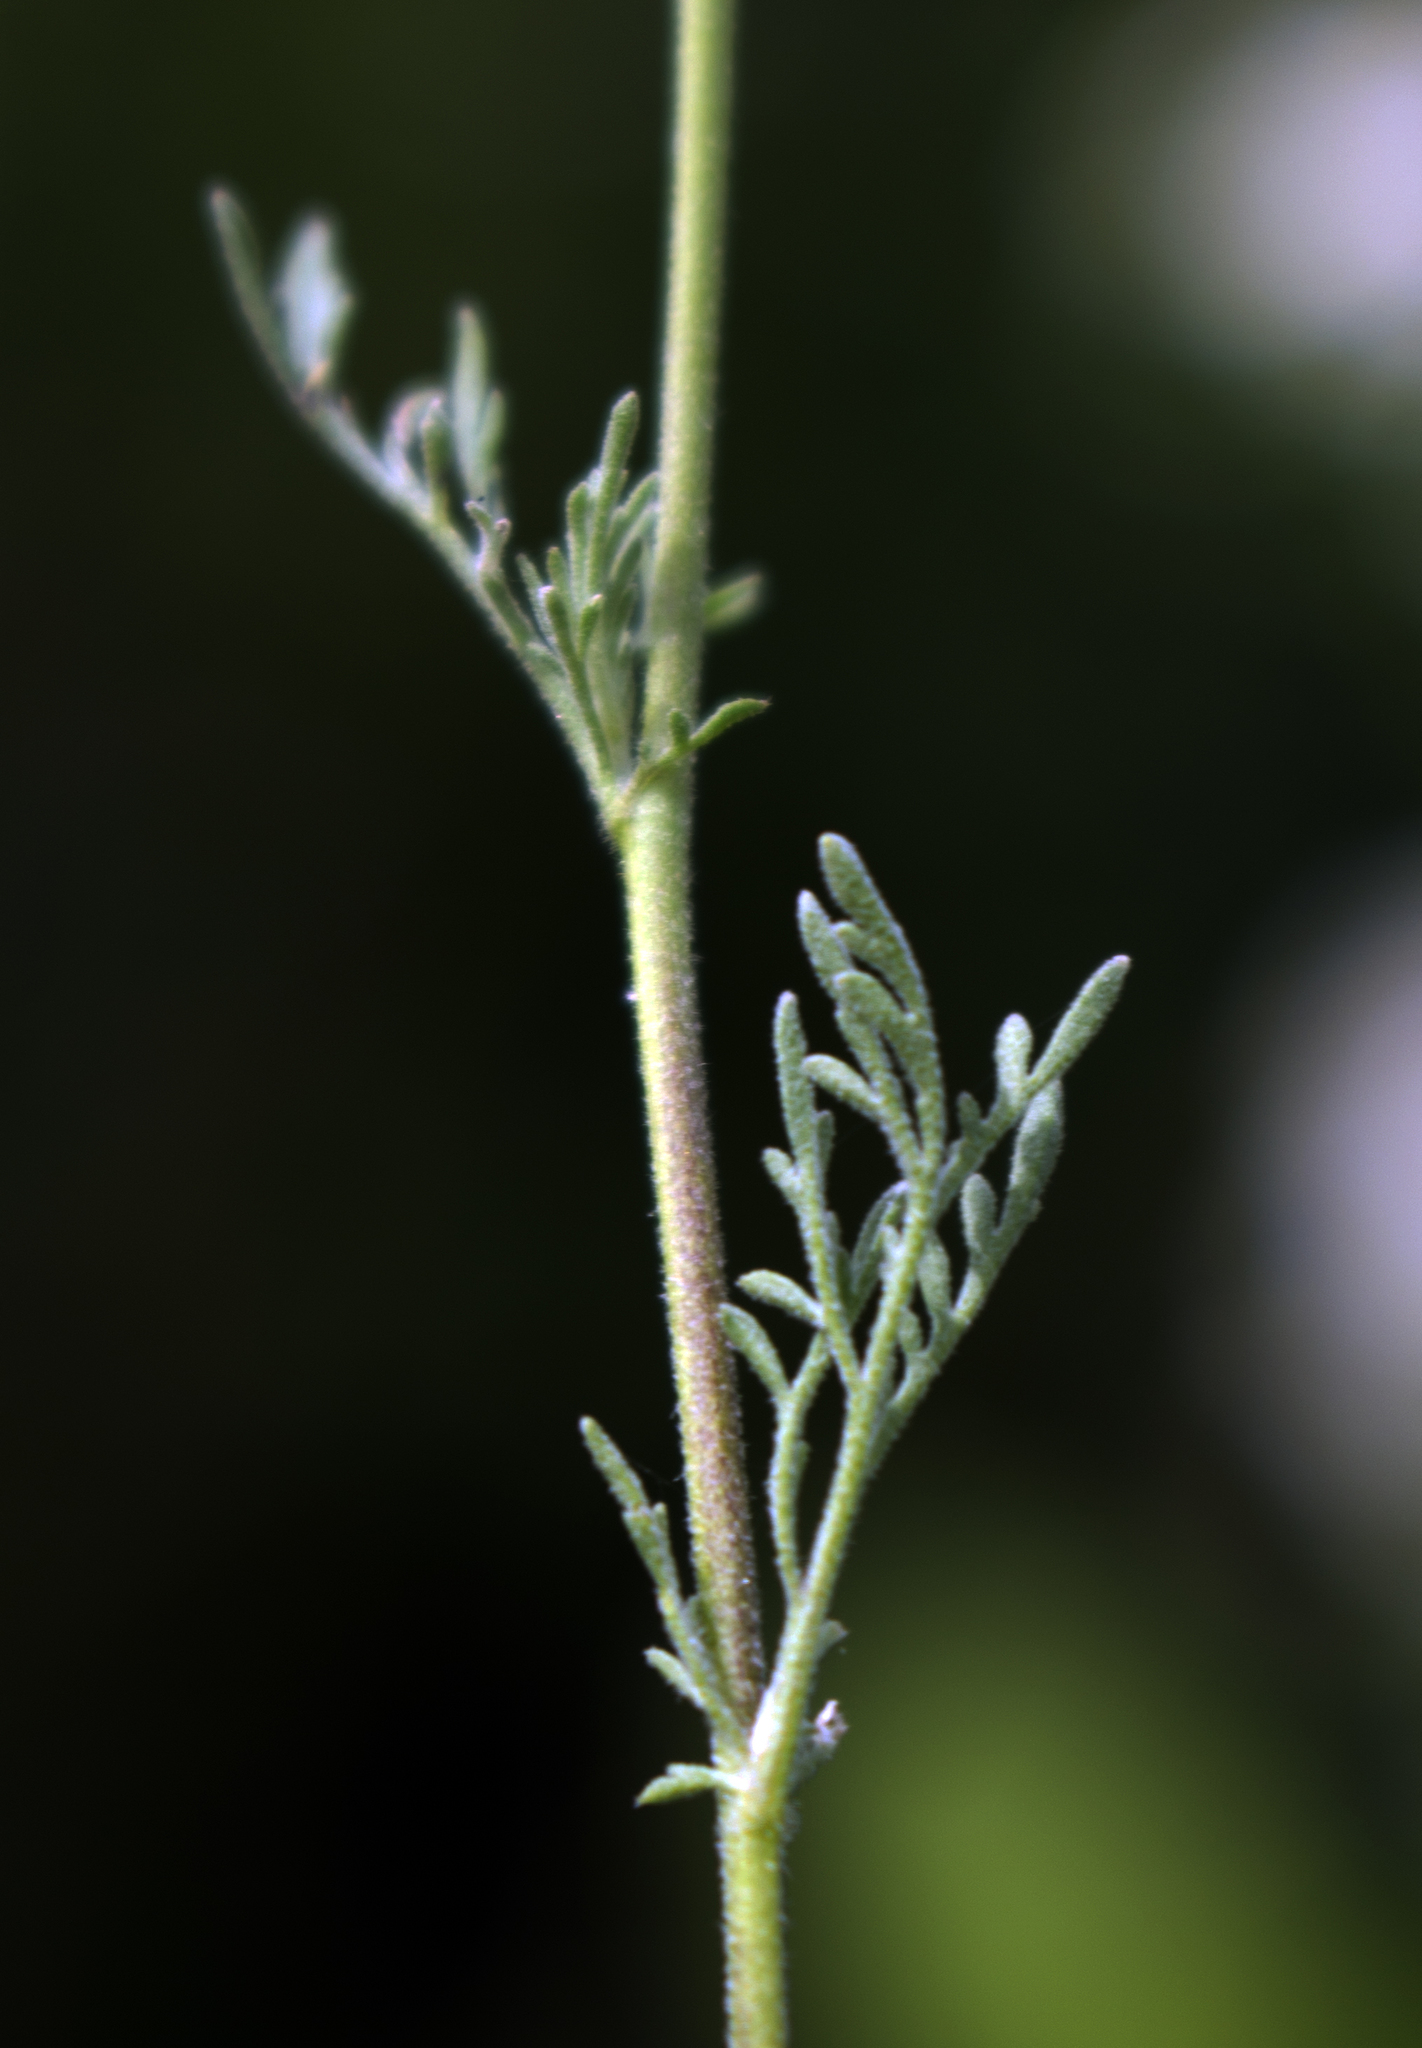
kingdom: Plantae
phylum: Tracheophyta
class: Magnoliopsida
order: Brassicales
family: Brassicaceae
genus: Descurainia
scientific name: Descurainia sophia
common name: Flixweed
